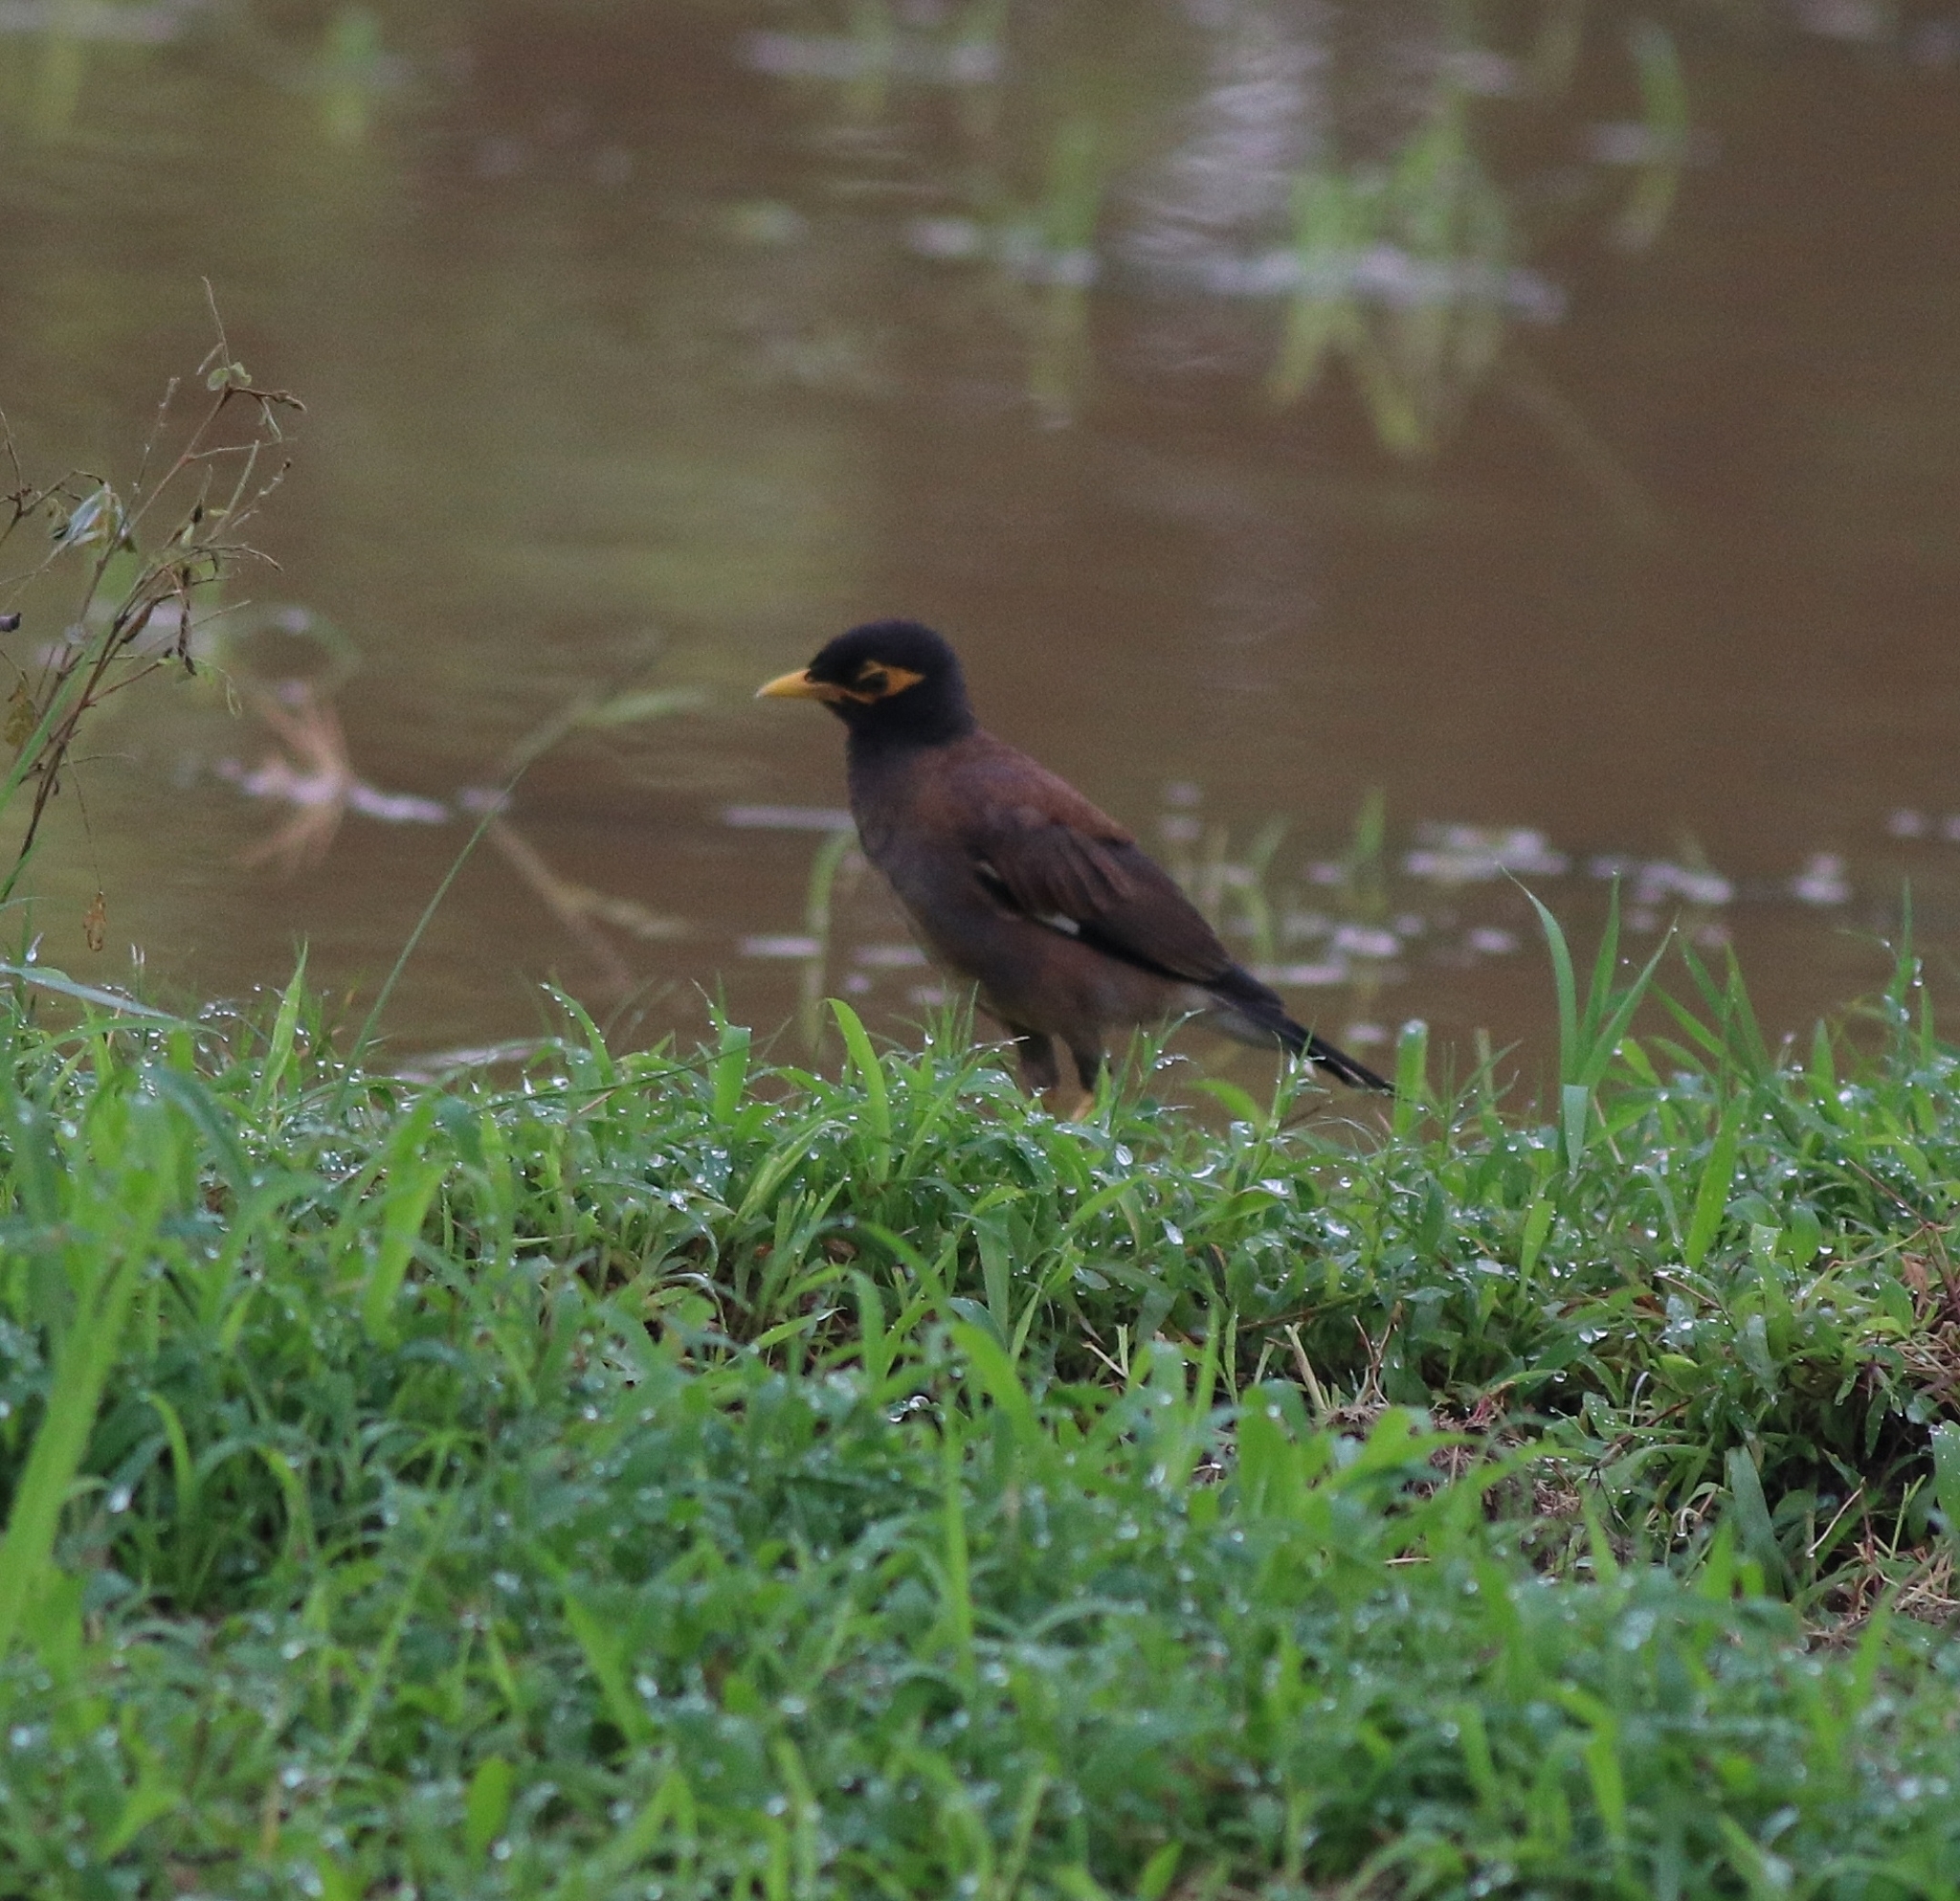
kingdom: Animalia
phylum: Chordata
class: Aves
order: Passeriformes
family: Sturnidae
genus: Acridotheres
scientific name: Acridotheres tristis
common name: Common myna
